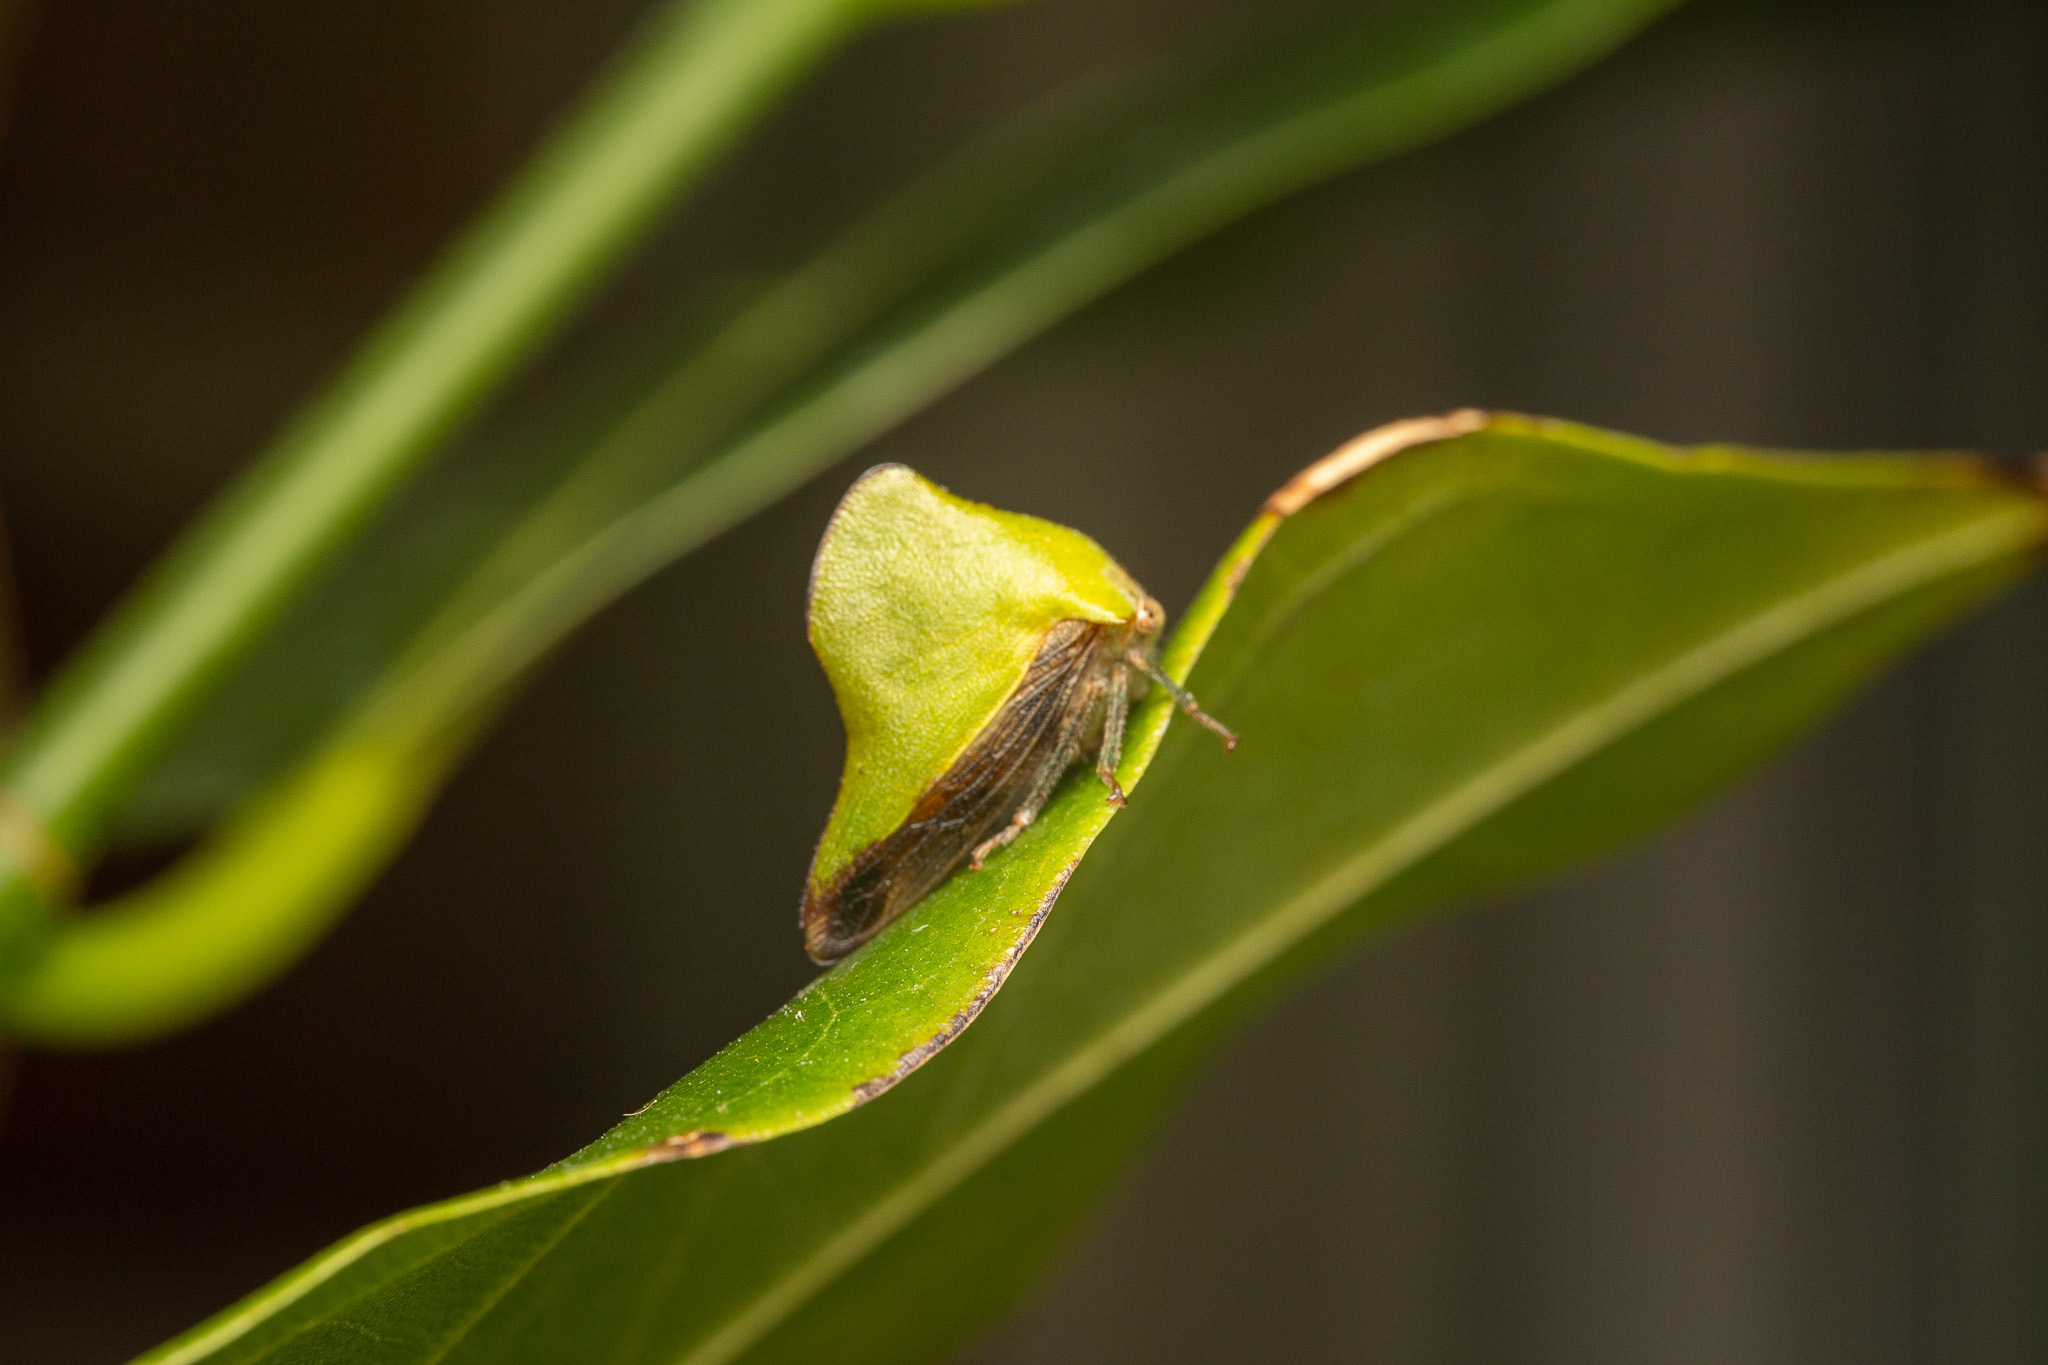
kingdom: Animalia
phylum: Arthropoda
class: Insecta
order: Hemiptera
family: Membracidae
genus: Helonica
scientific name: Helonica excelsa
